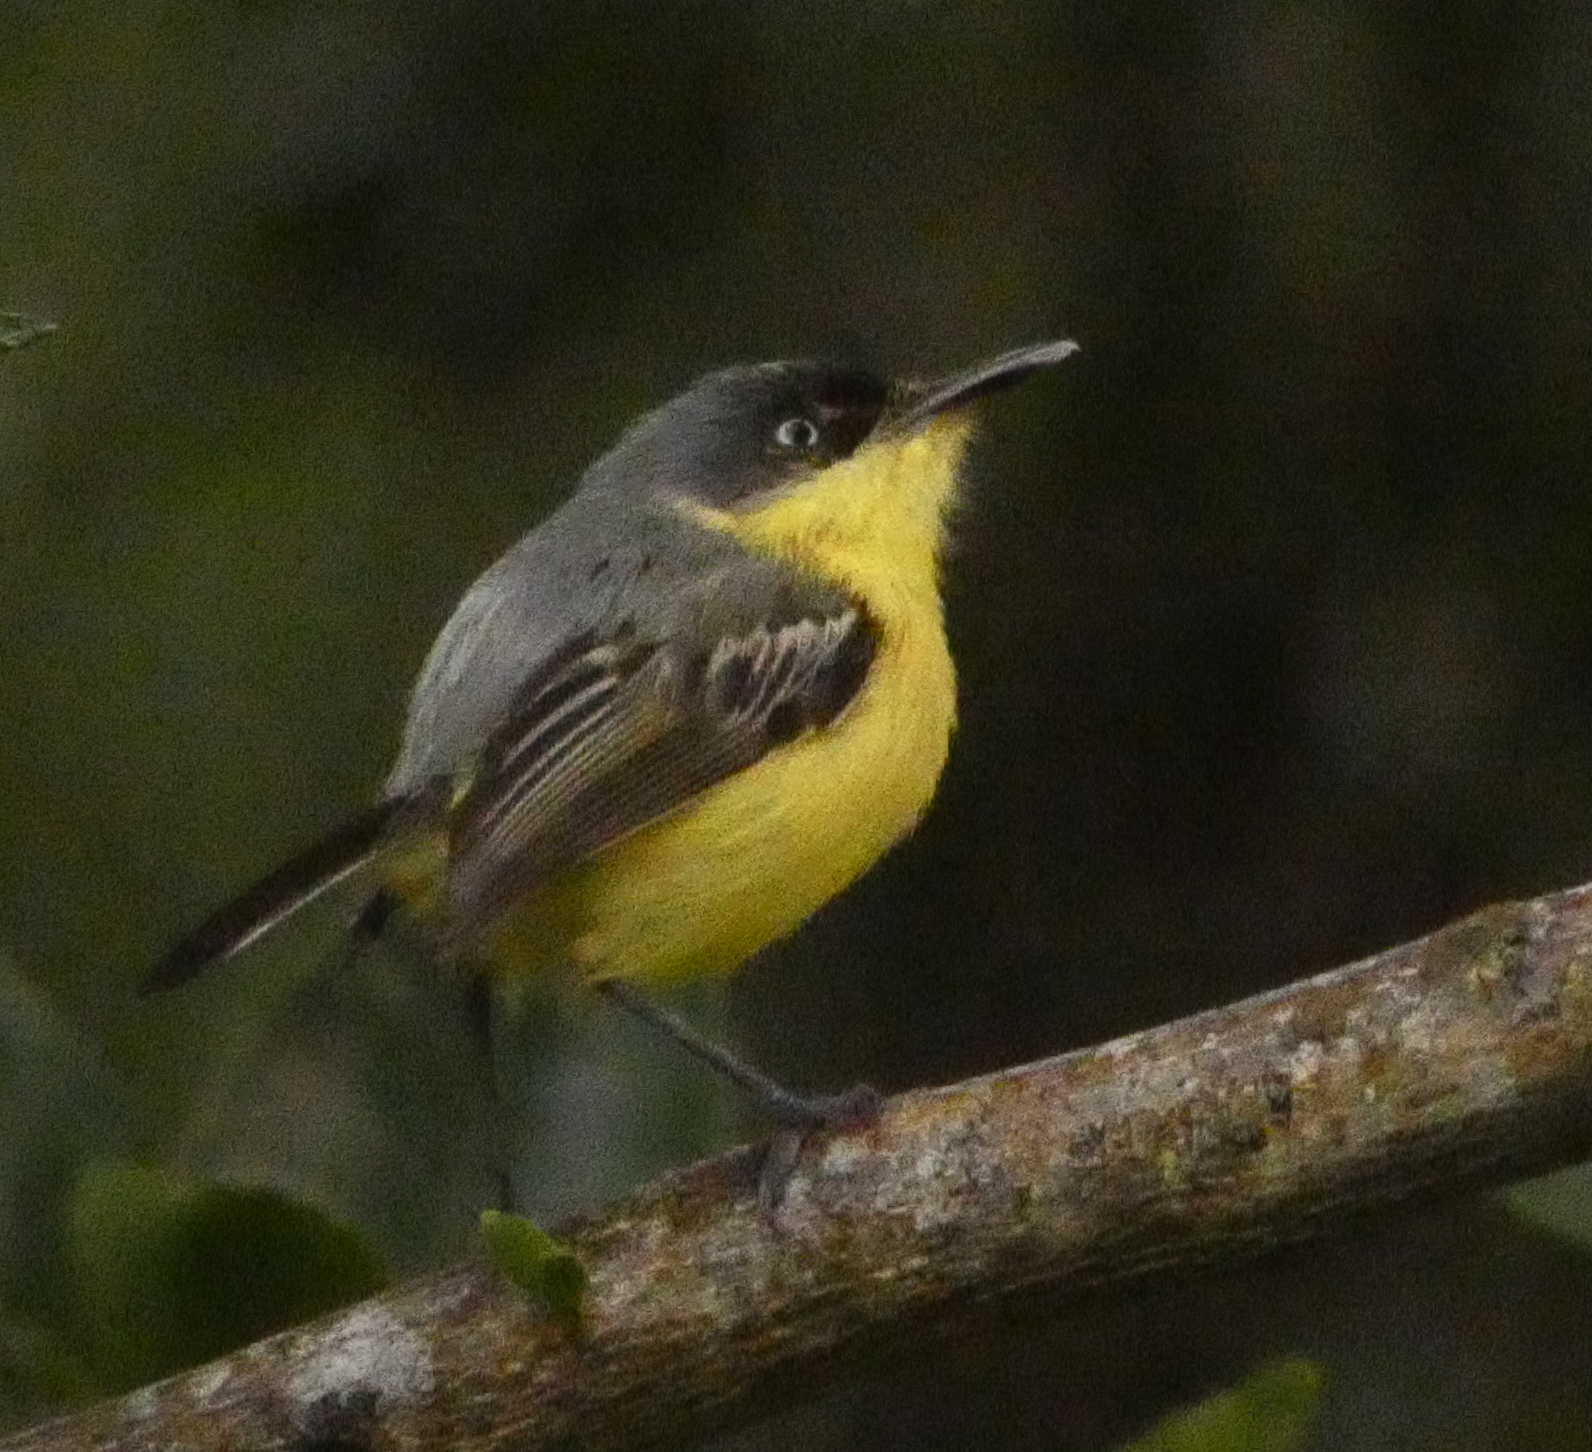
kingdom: Animalia
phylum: Chordata
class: Aves
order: Passeriformes
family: Tyrannidae
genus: Todirostrum
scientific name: Todirostrum cinereum
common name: Common tody-flycatcher
